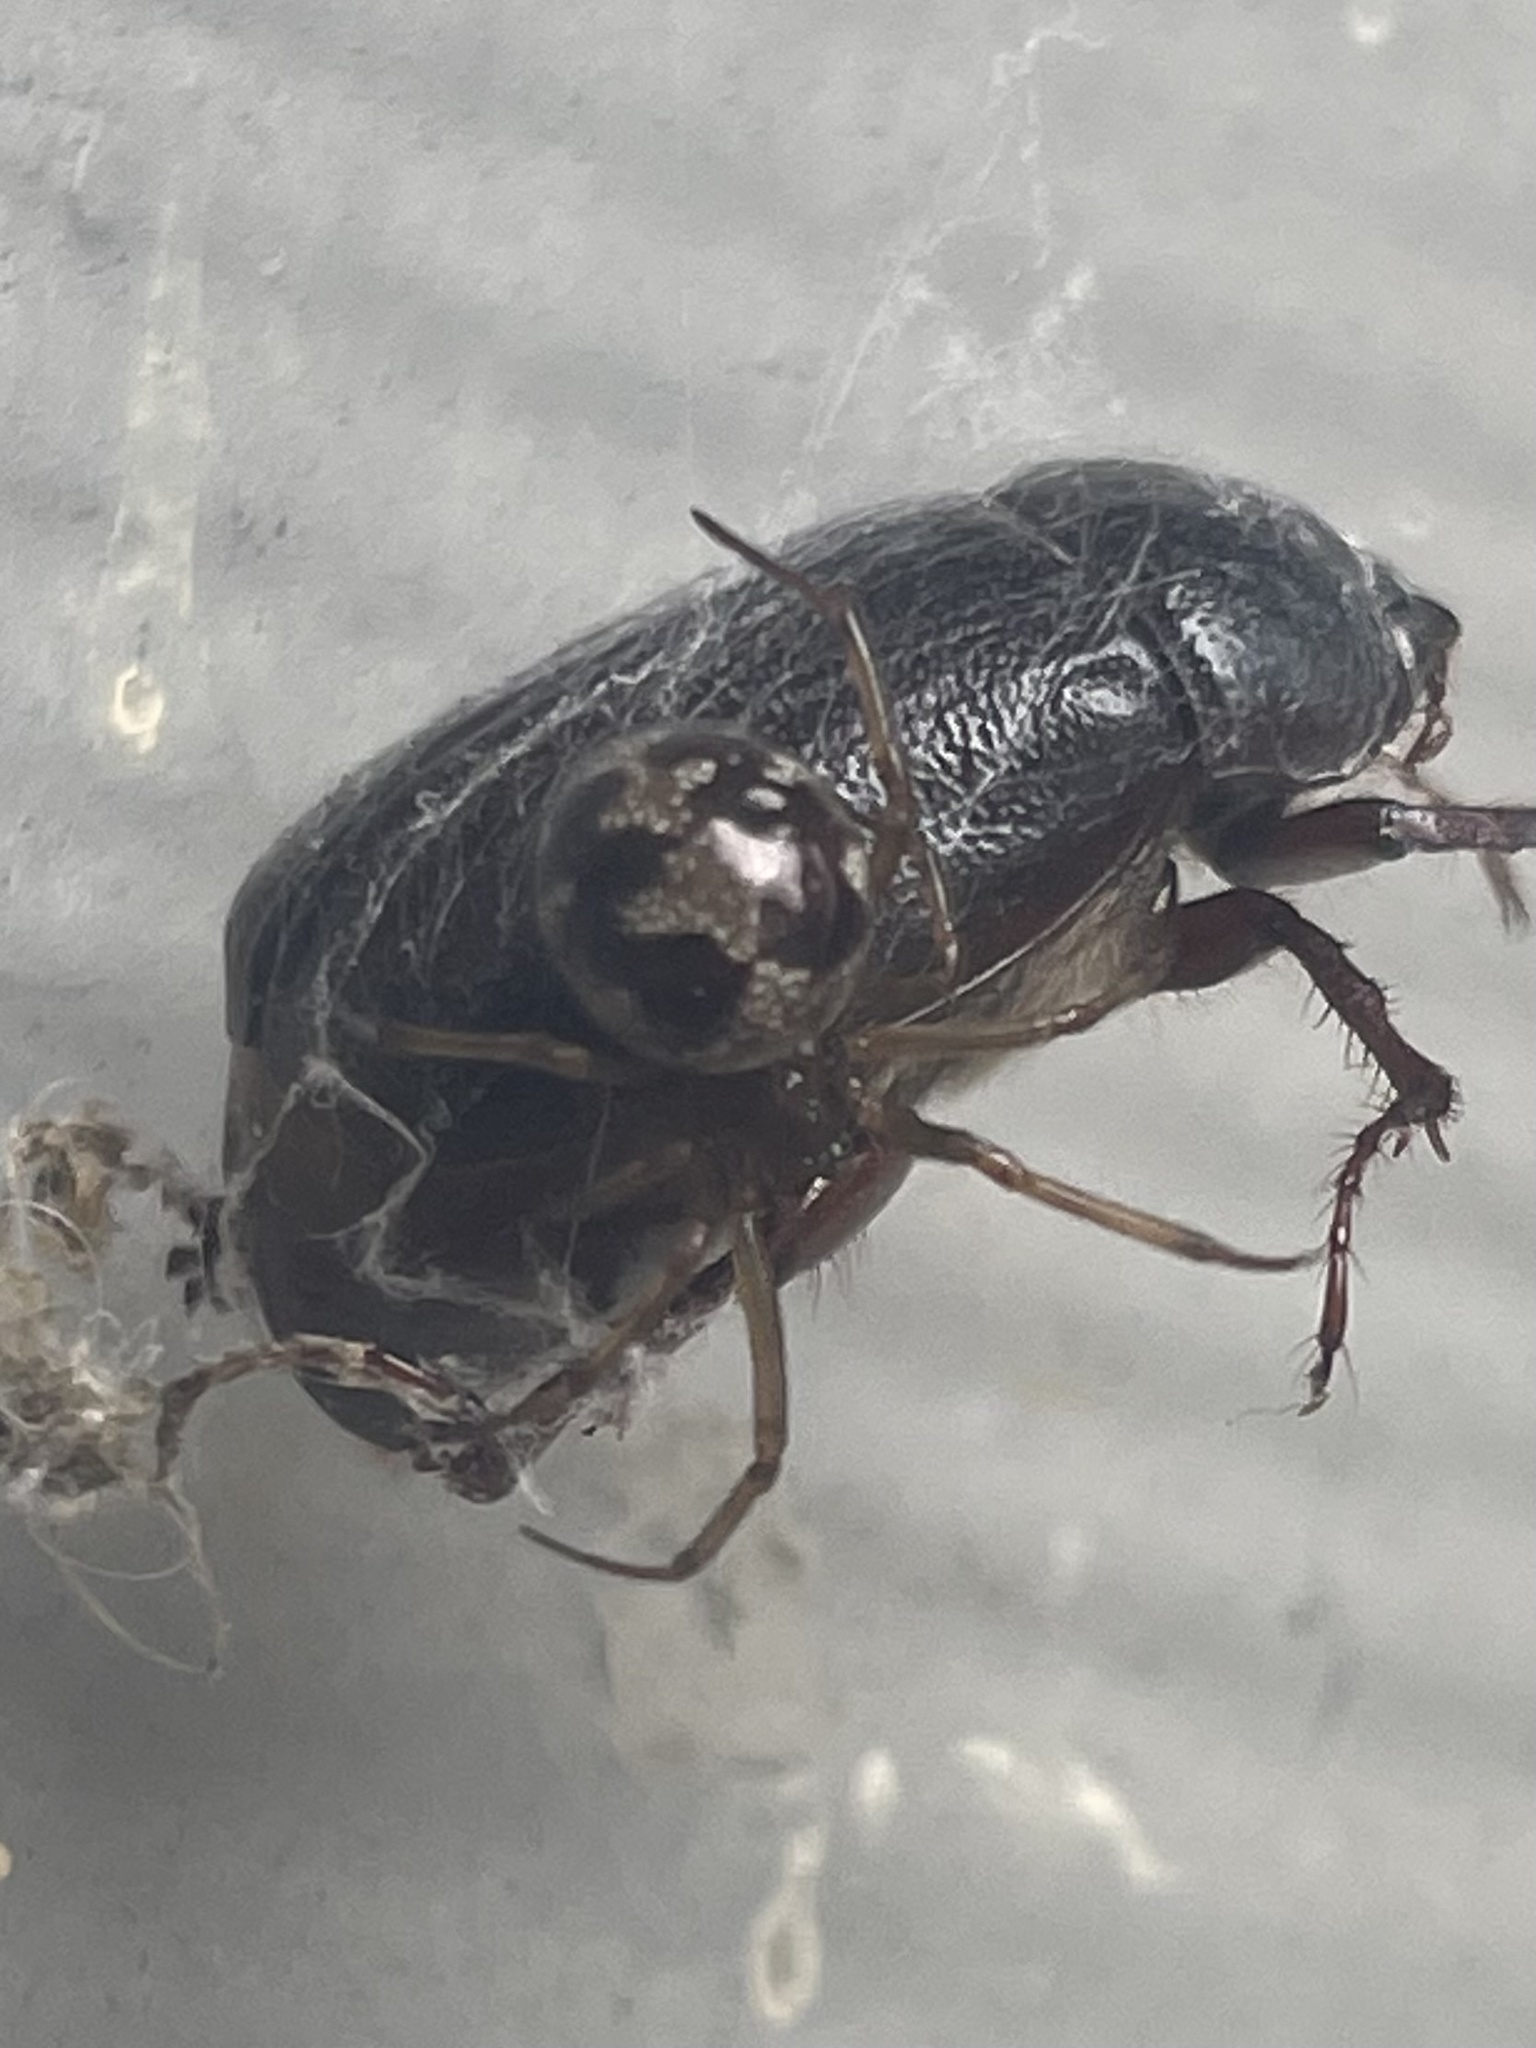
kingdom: Animalia
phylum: Arthropoda
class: Arachnida
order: Araneae
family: Theridiidae
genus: Steatoda
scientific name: Steatoda triangulosa
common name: Triangulate bud spider
